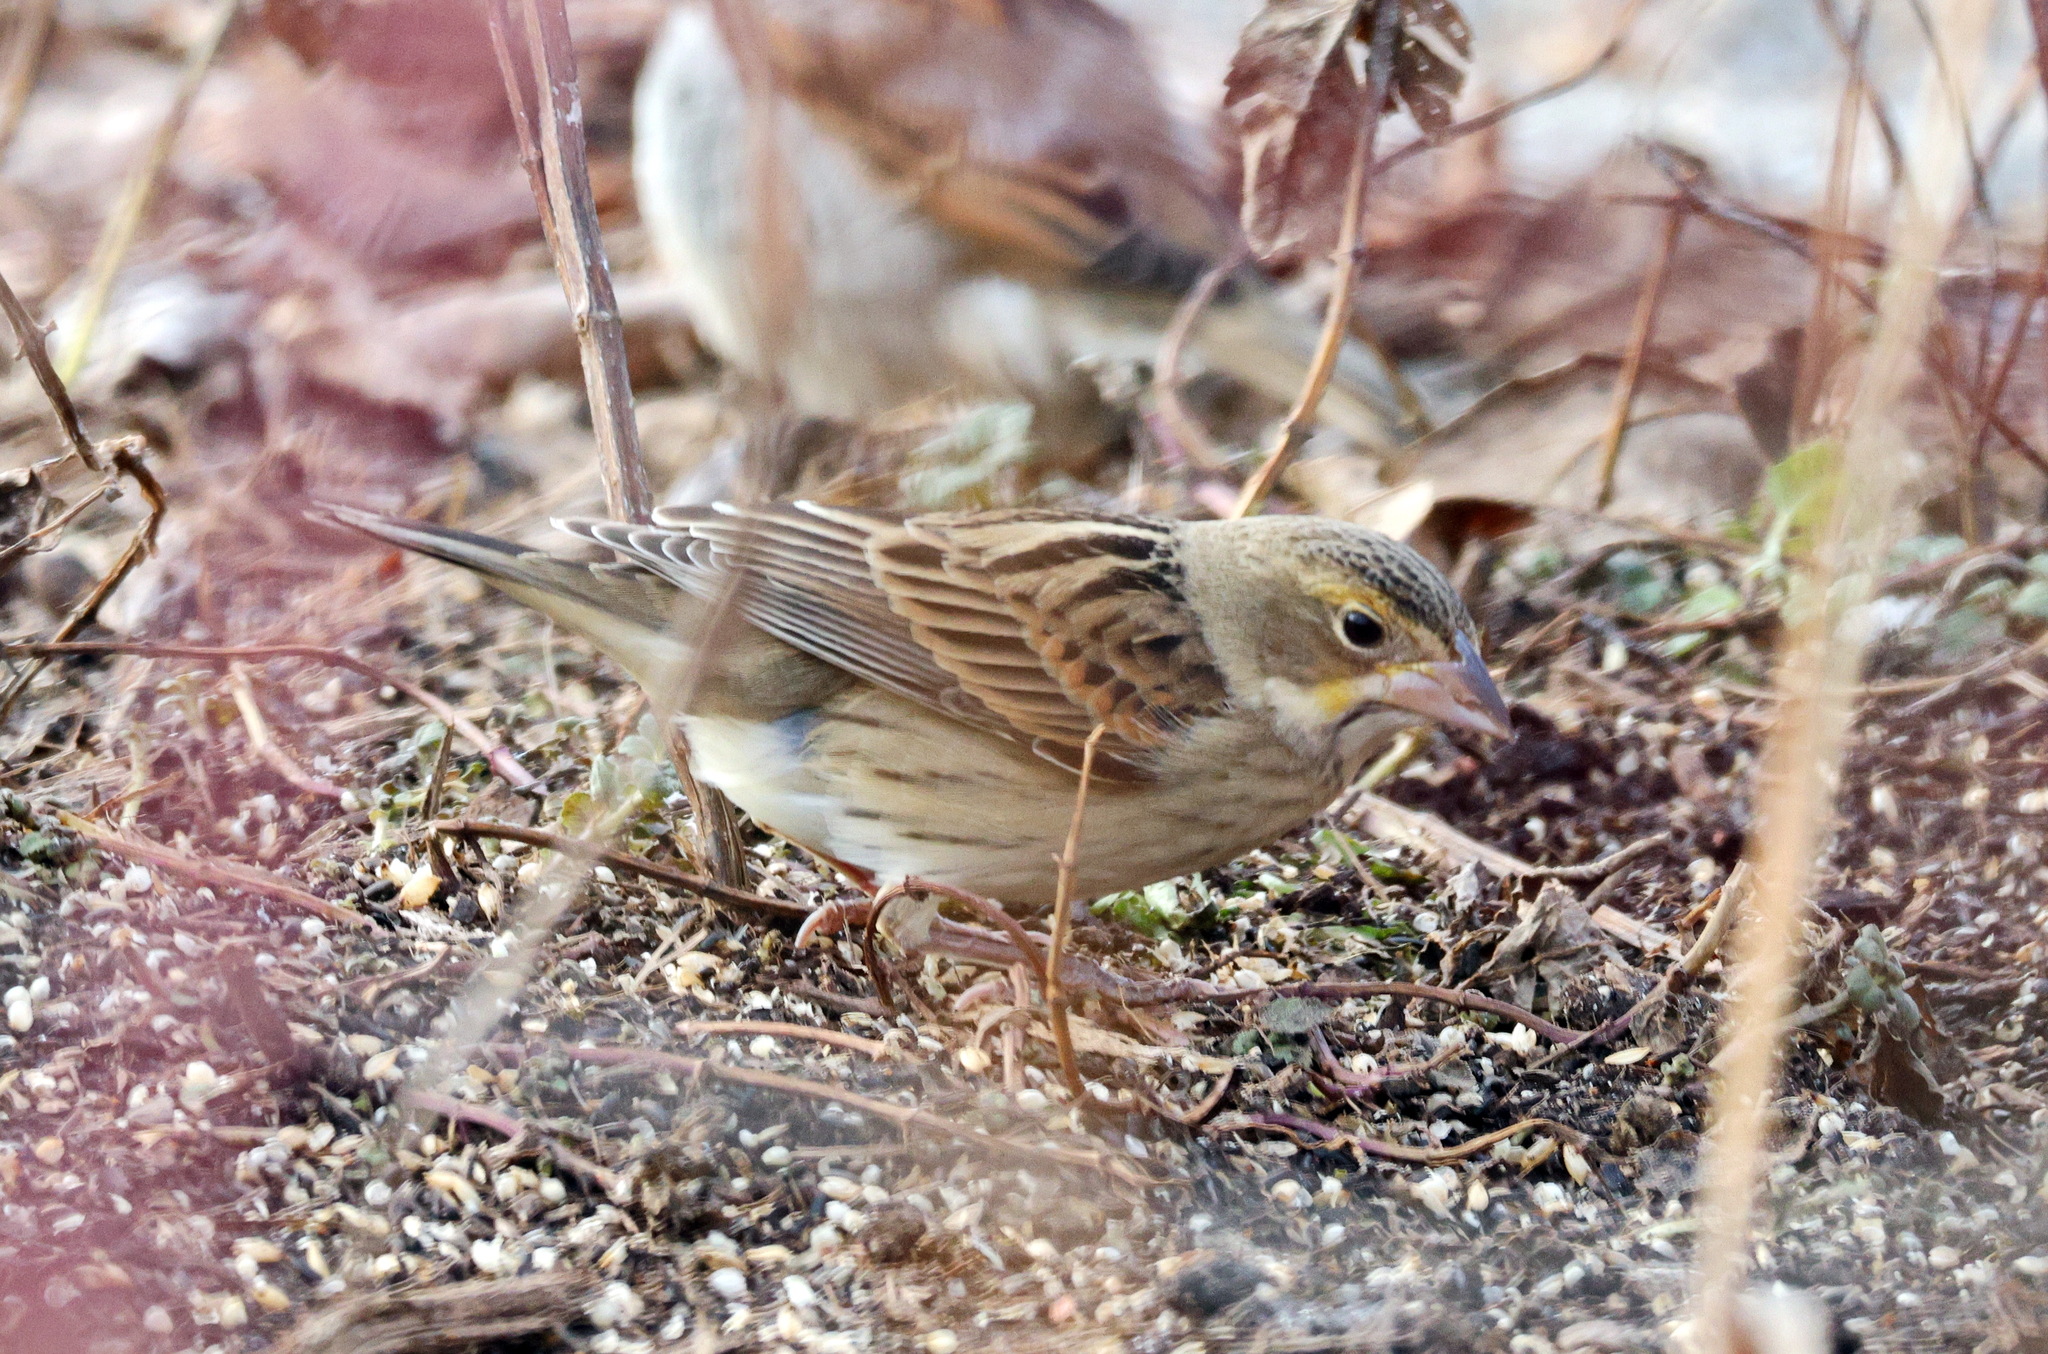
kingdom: Animalia
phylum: Chordata
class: Aves
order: Passeriformes
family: Cardinalidae
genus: Spiza
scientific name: Spiza americana
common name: Dickcissel
